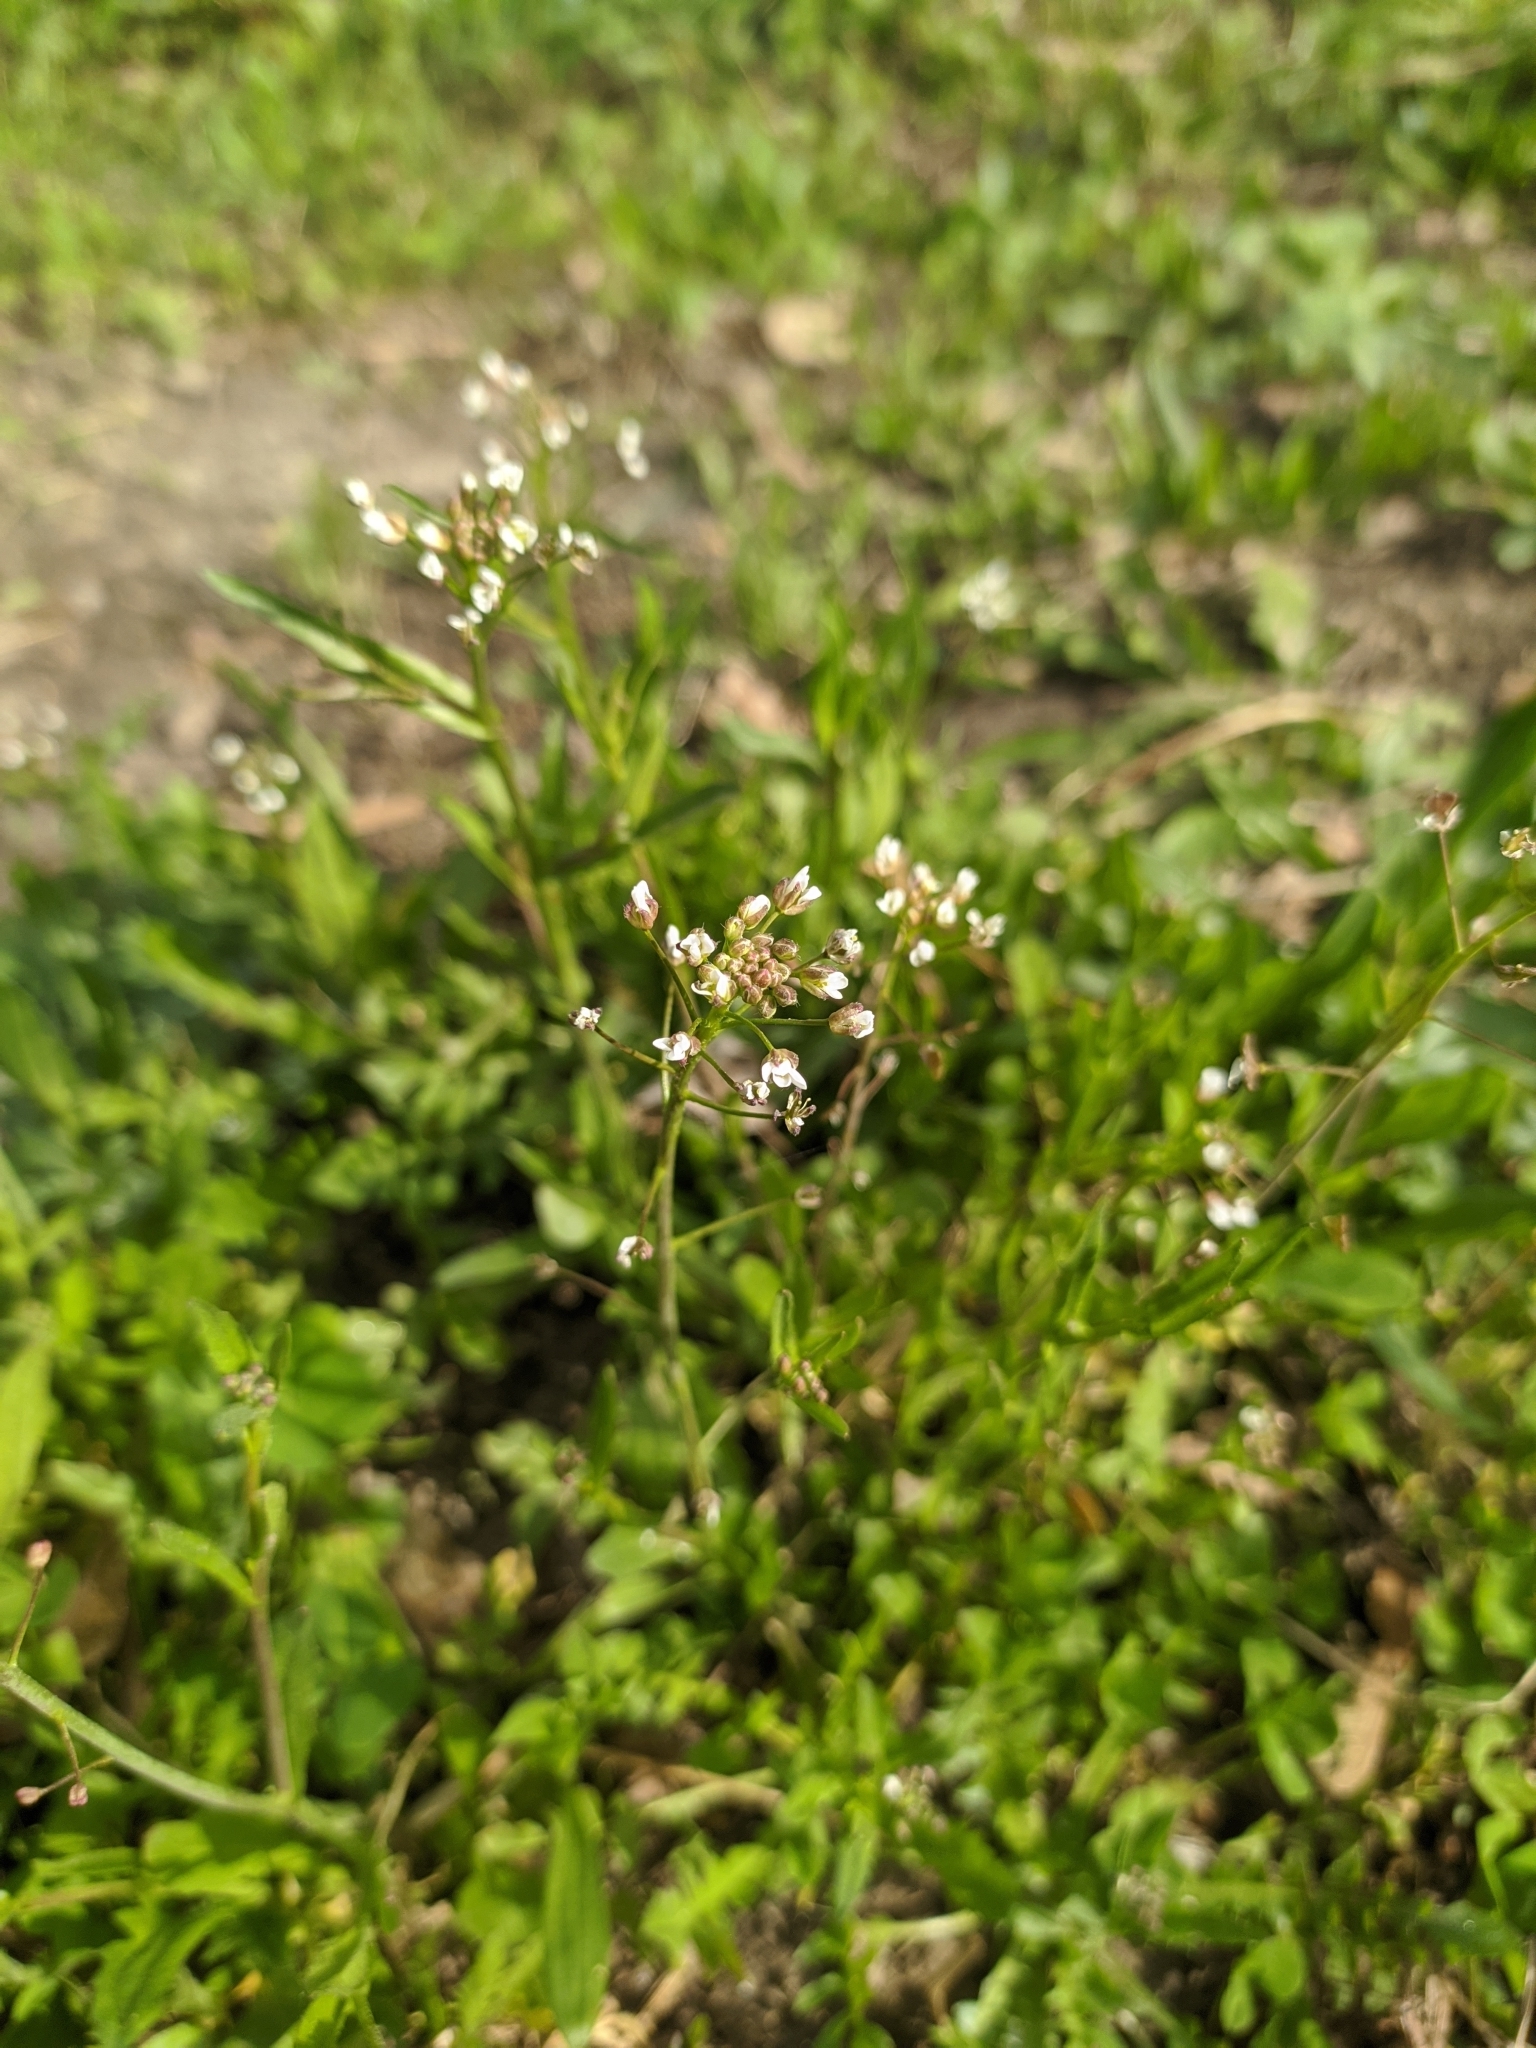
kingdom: Plantae
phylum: Tracheophyta
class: Magnoliopsida
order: Brassicales
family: Brassicaceae
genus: Capsella
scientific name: Capsella bursa-pastoris
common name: Shepherd's purse
